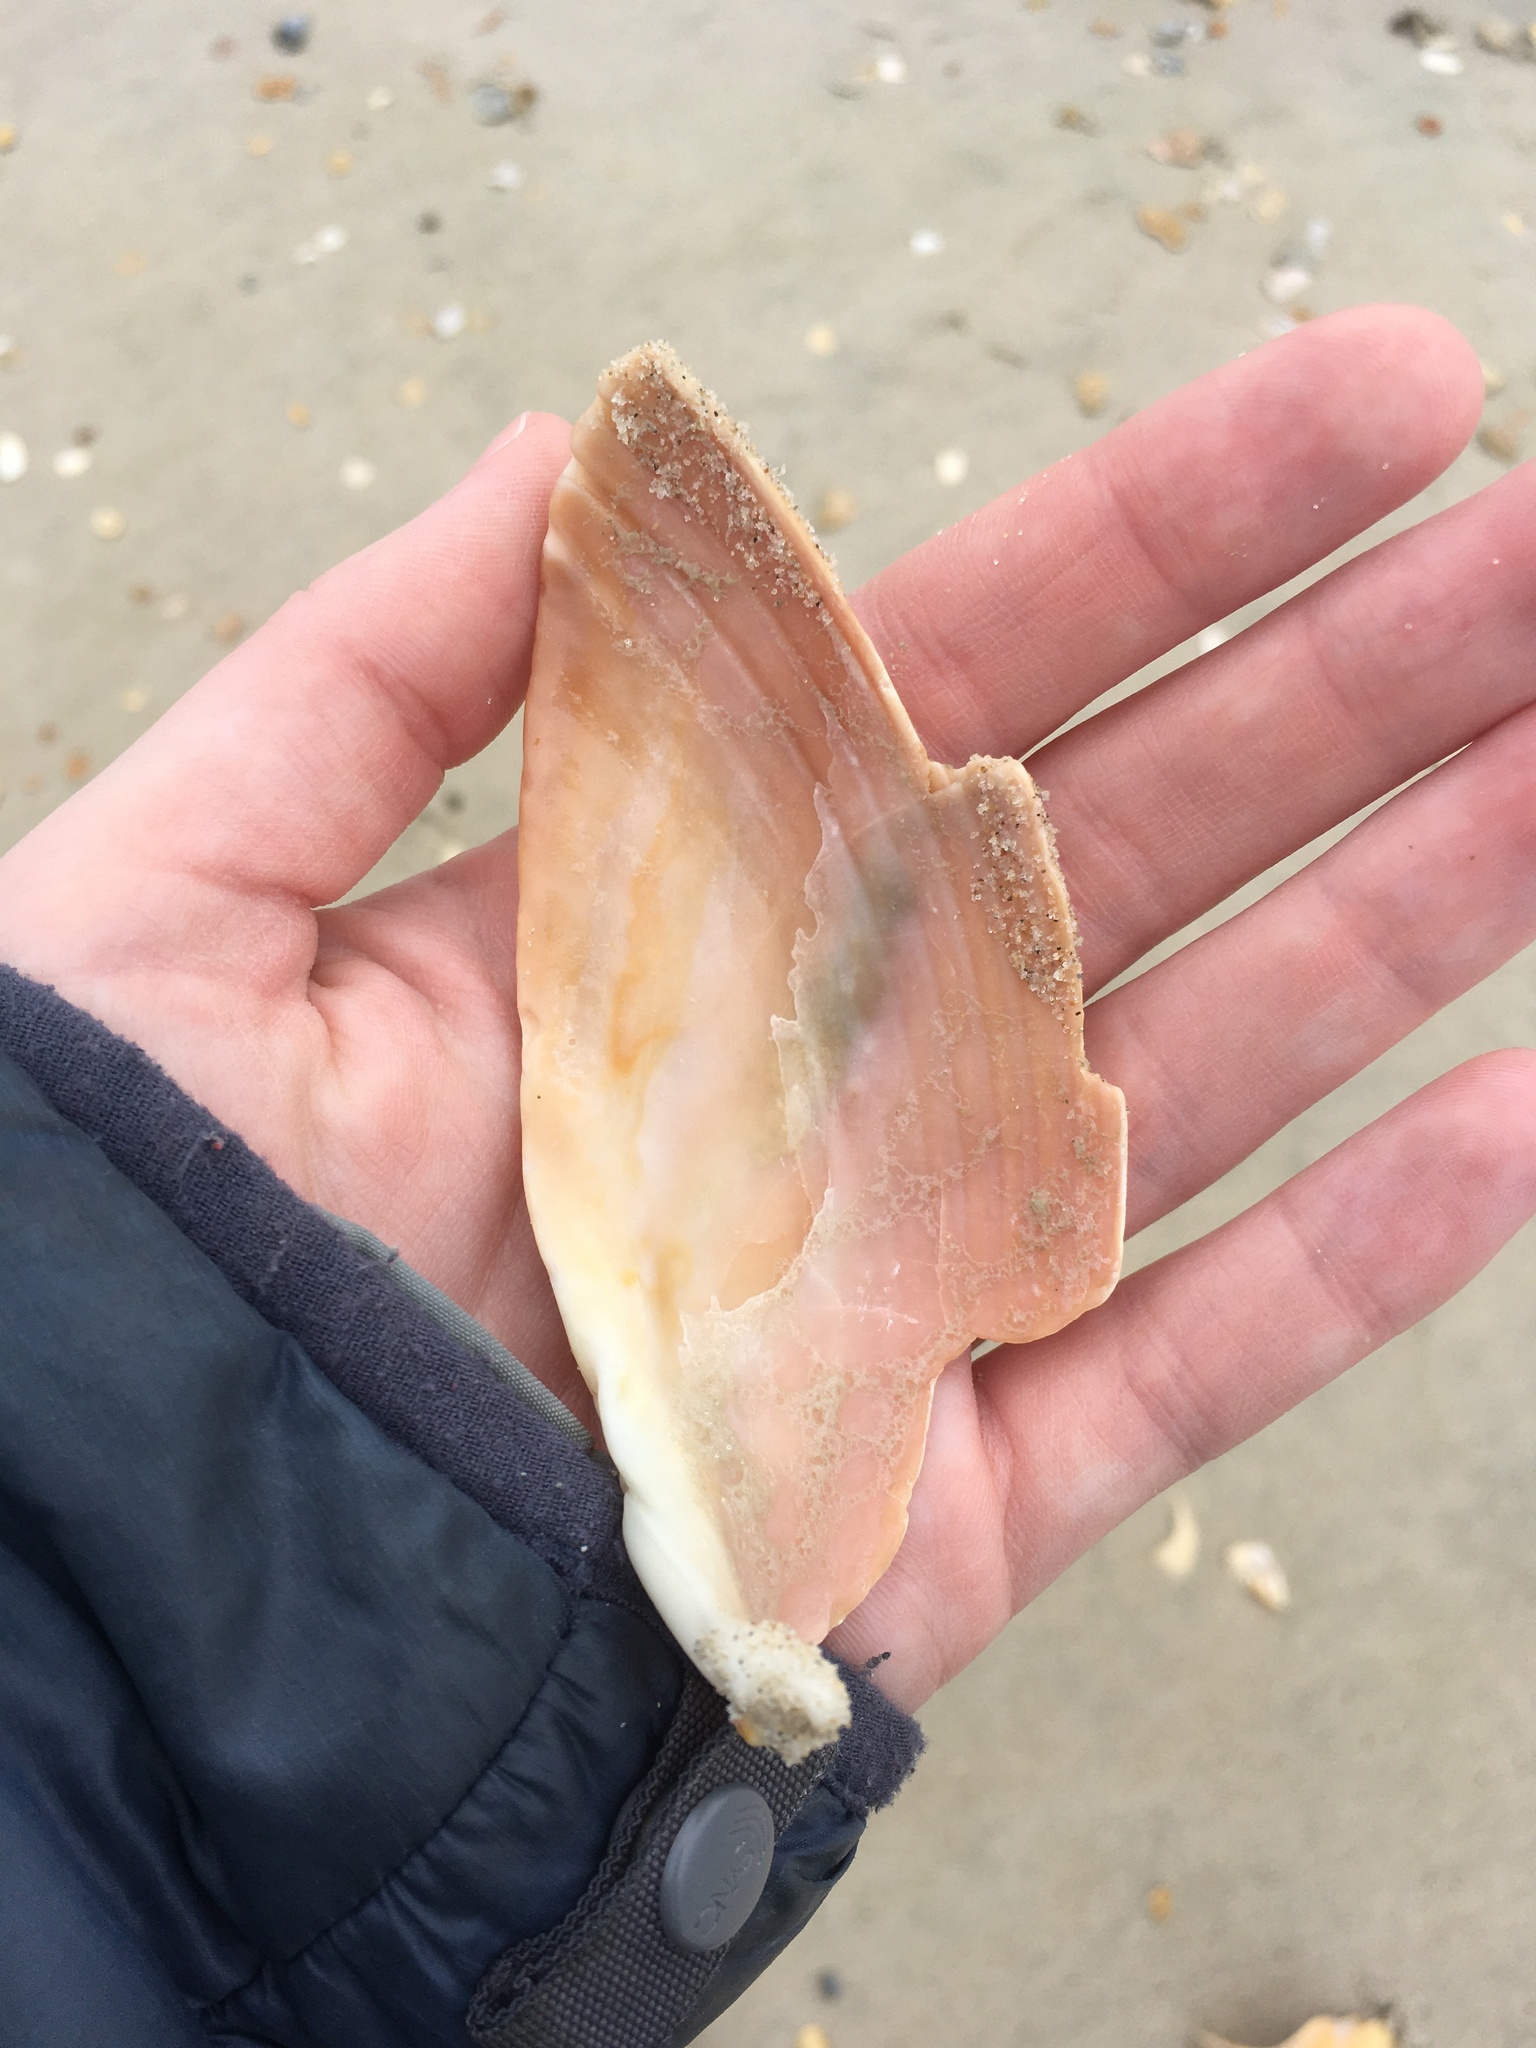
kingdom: Animalia
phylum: Mollusca
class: Bivalvia
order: Cardiida
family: Cardiidae
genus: Dinocardium
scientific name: Dinocardium robustum
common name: Atlantic giant cockle
